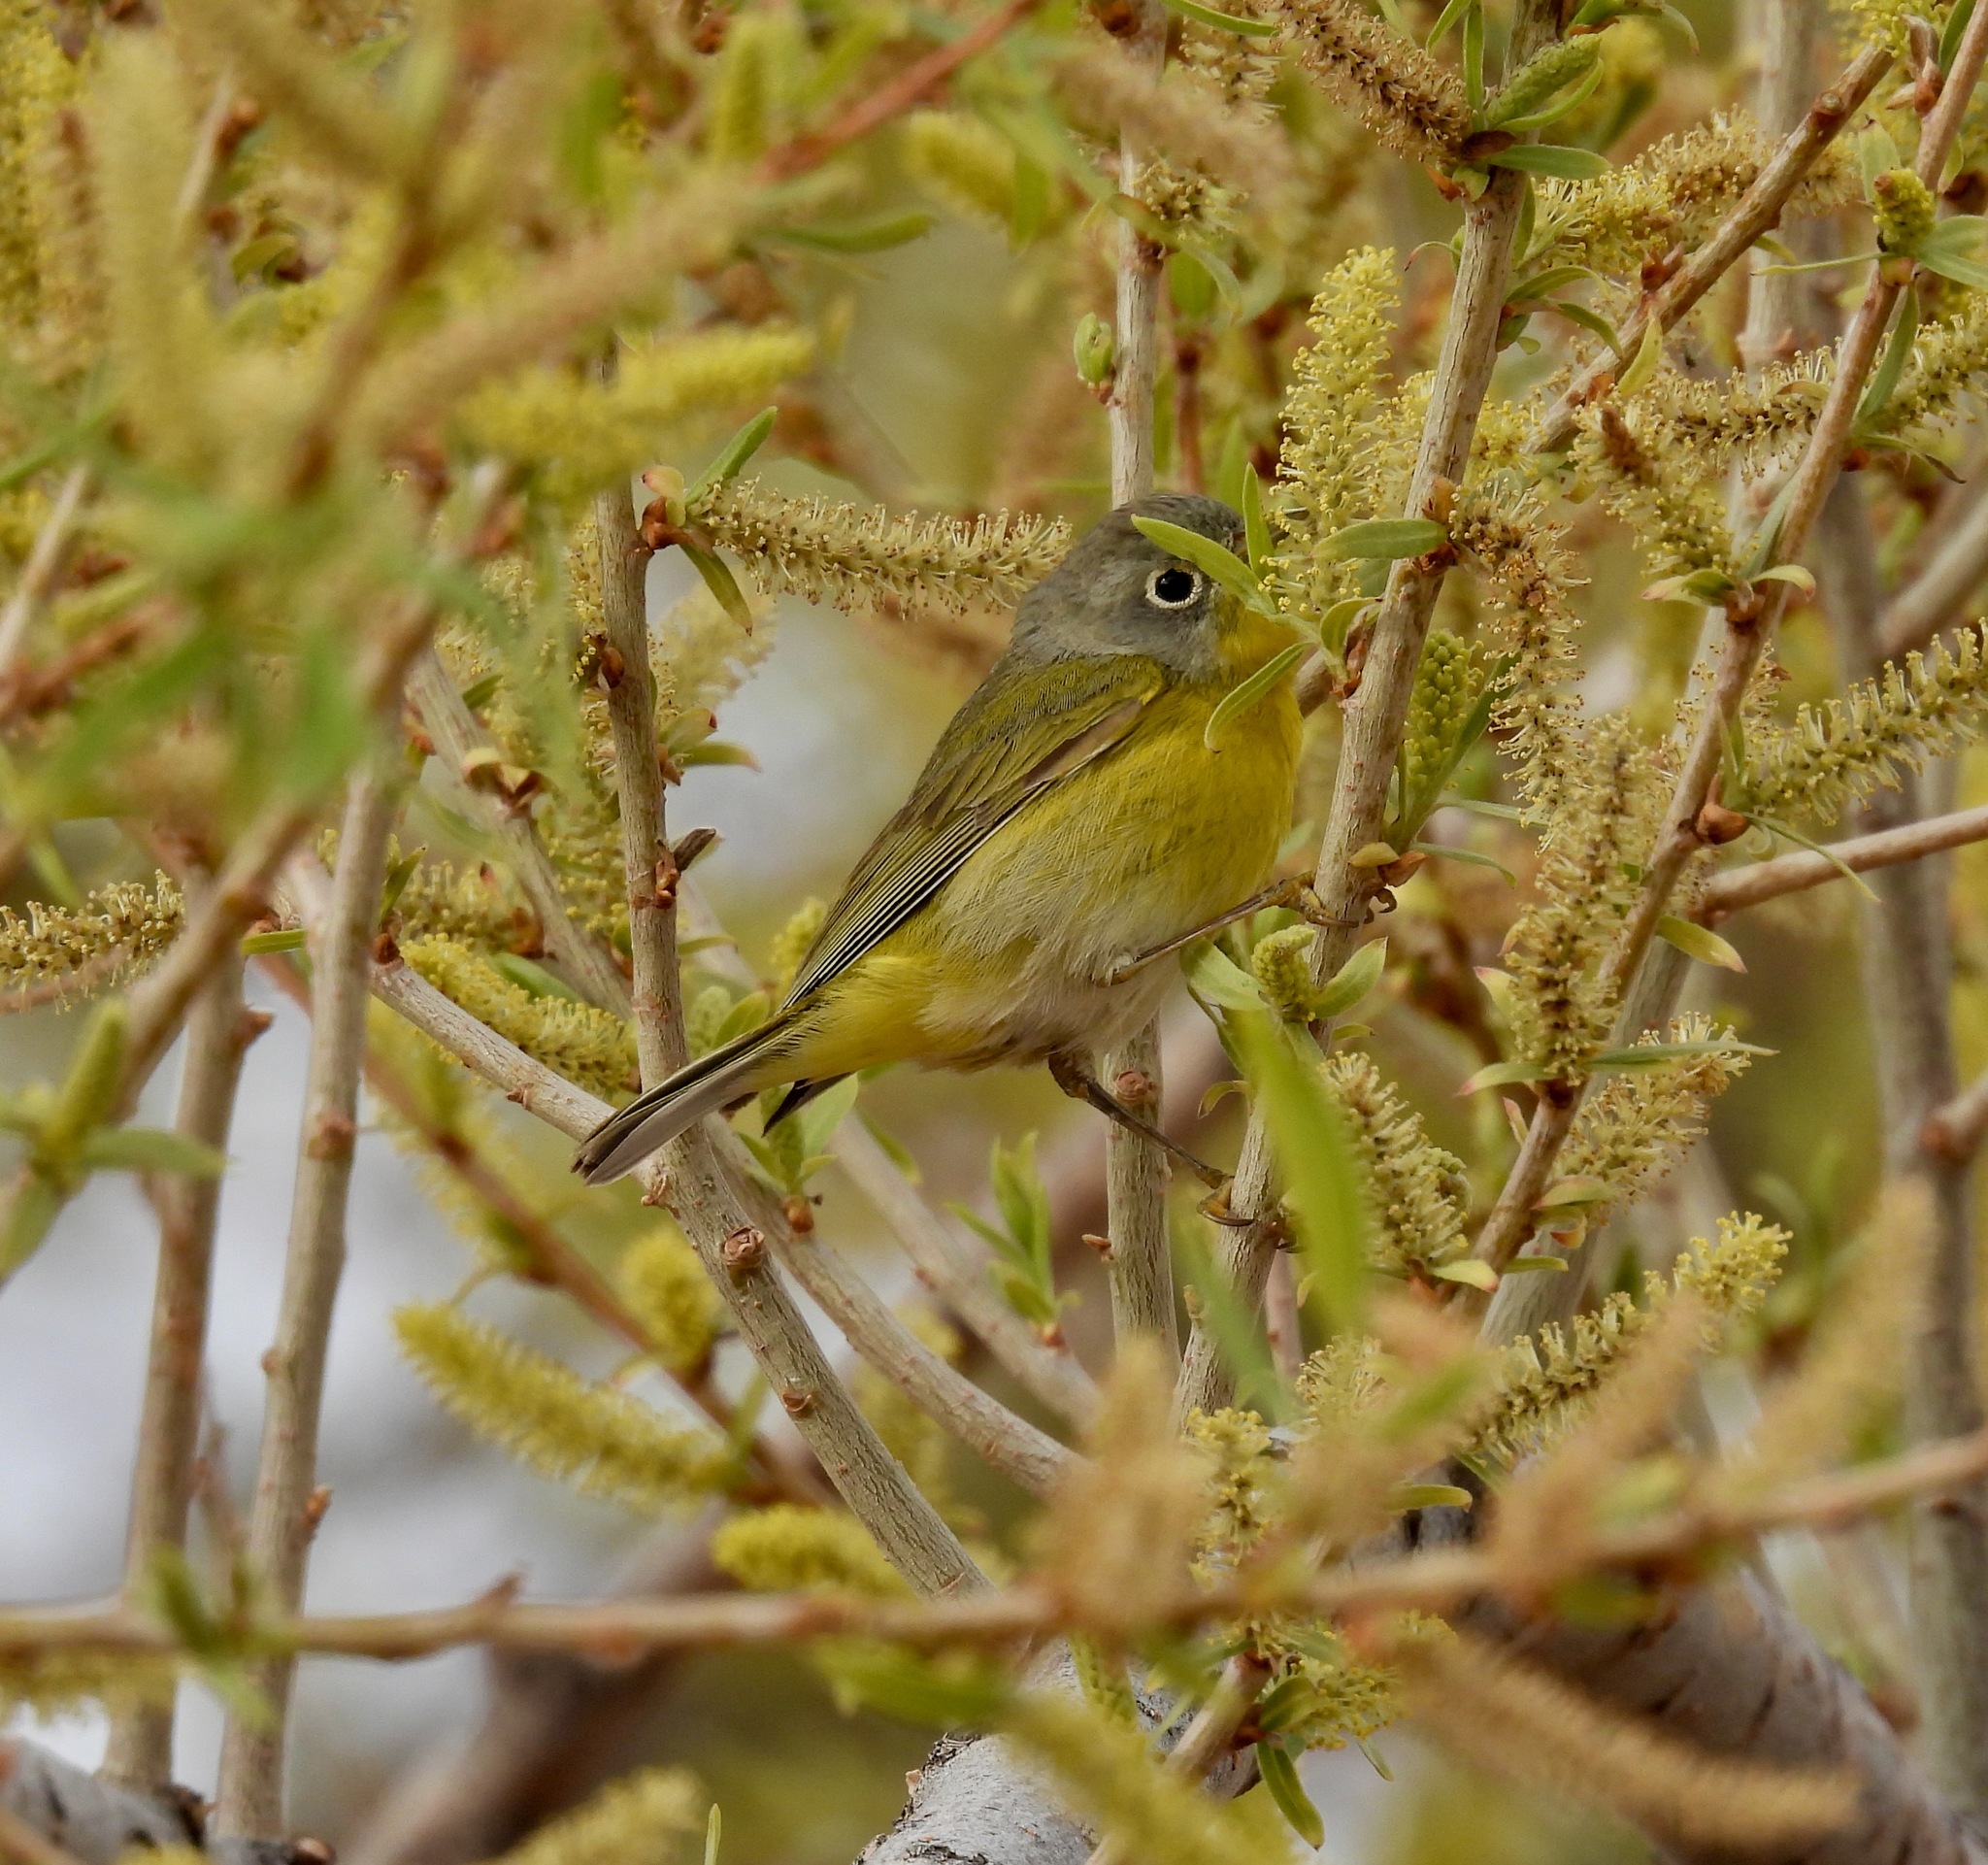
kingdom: Animalia
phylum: Chordata
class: Aves
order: Passeriformes
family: Parulidae
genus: Leiothlypis
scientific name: Leiothlypis ruficapilla
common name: Nashville warbler
